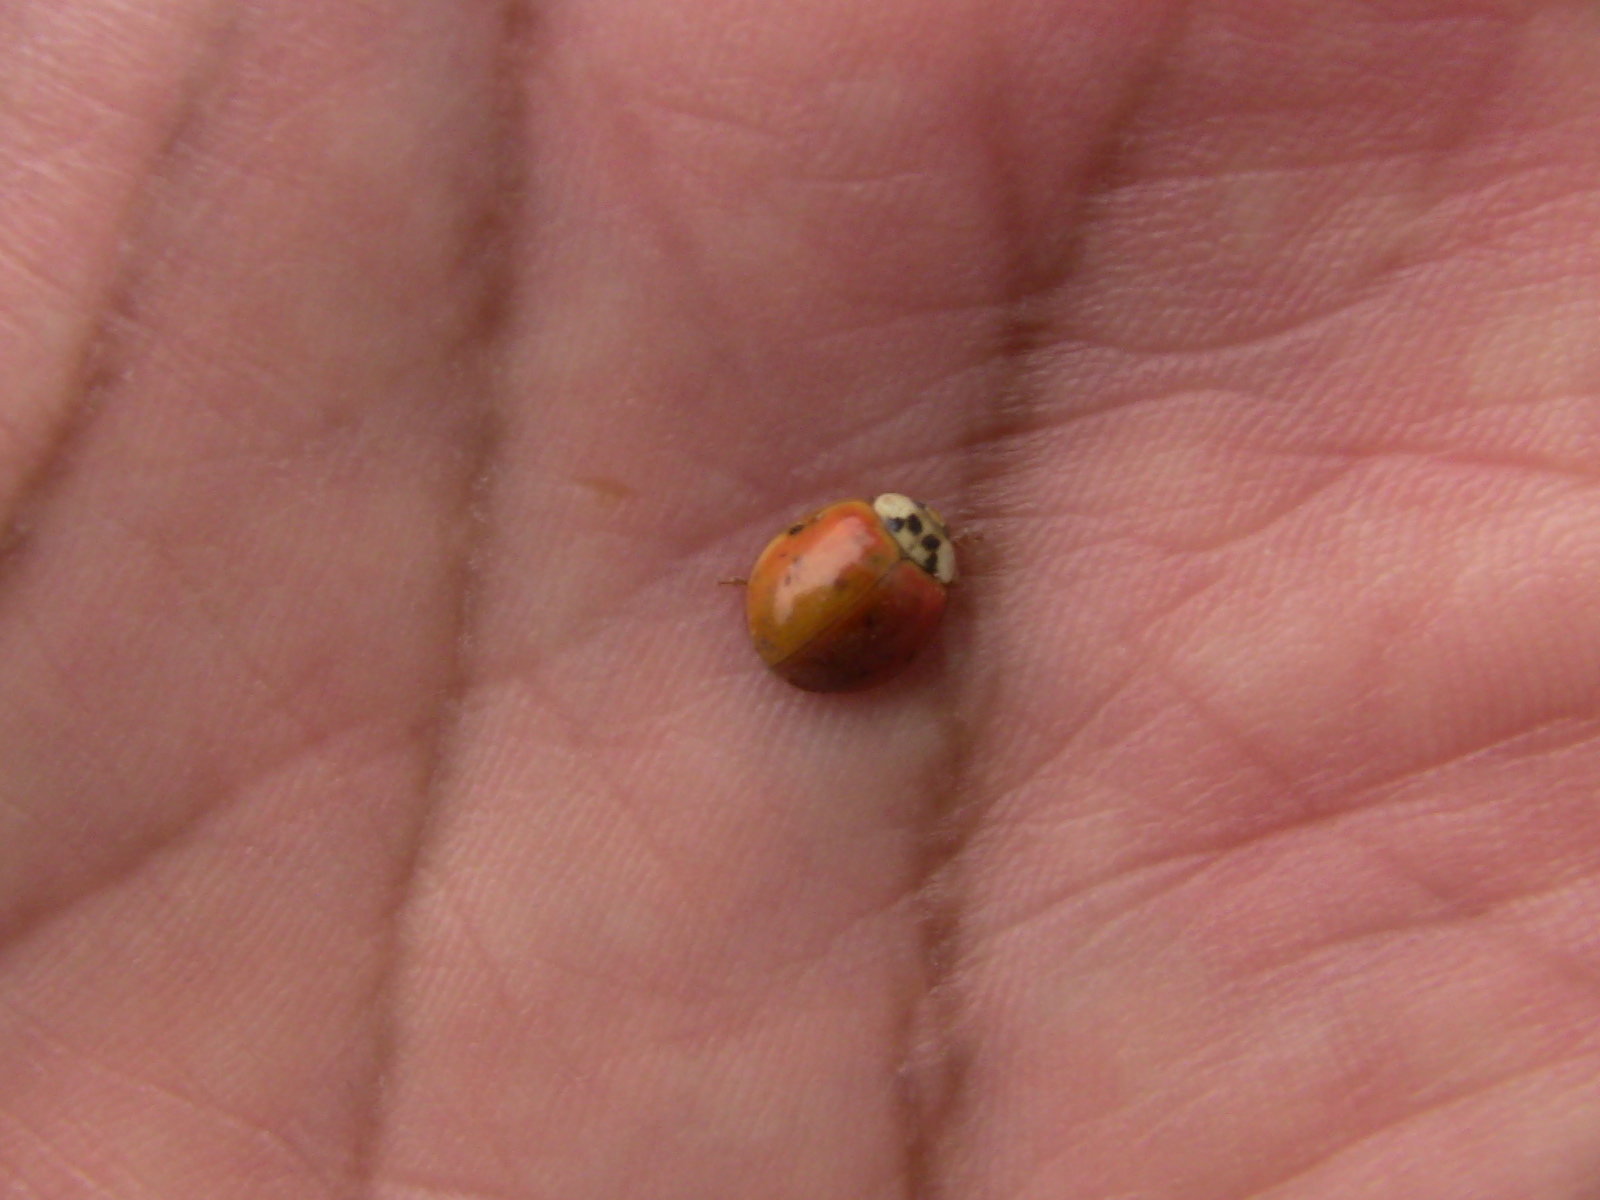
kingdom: Animalia
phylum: Arthropoda
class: Insecta
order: Coleoptera
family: Coccinellidae
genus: Harmonia
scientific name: Harmonia axyridis
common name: Harlequin ladybird
